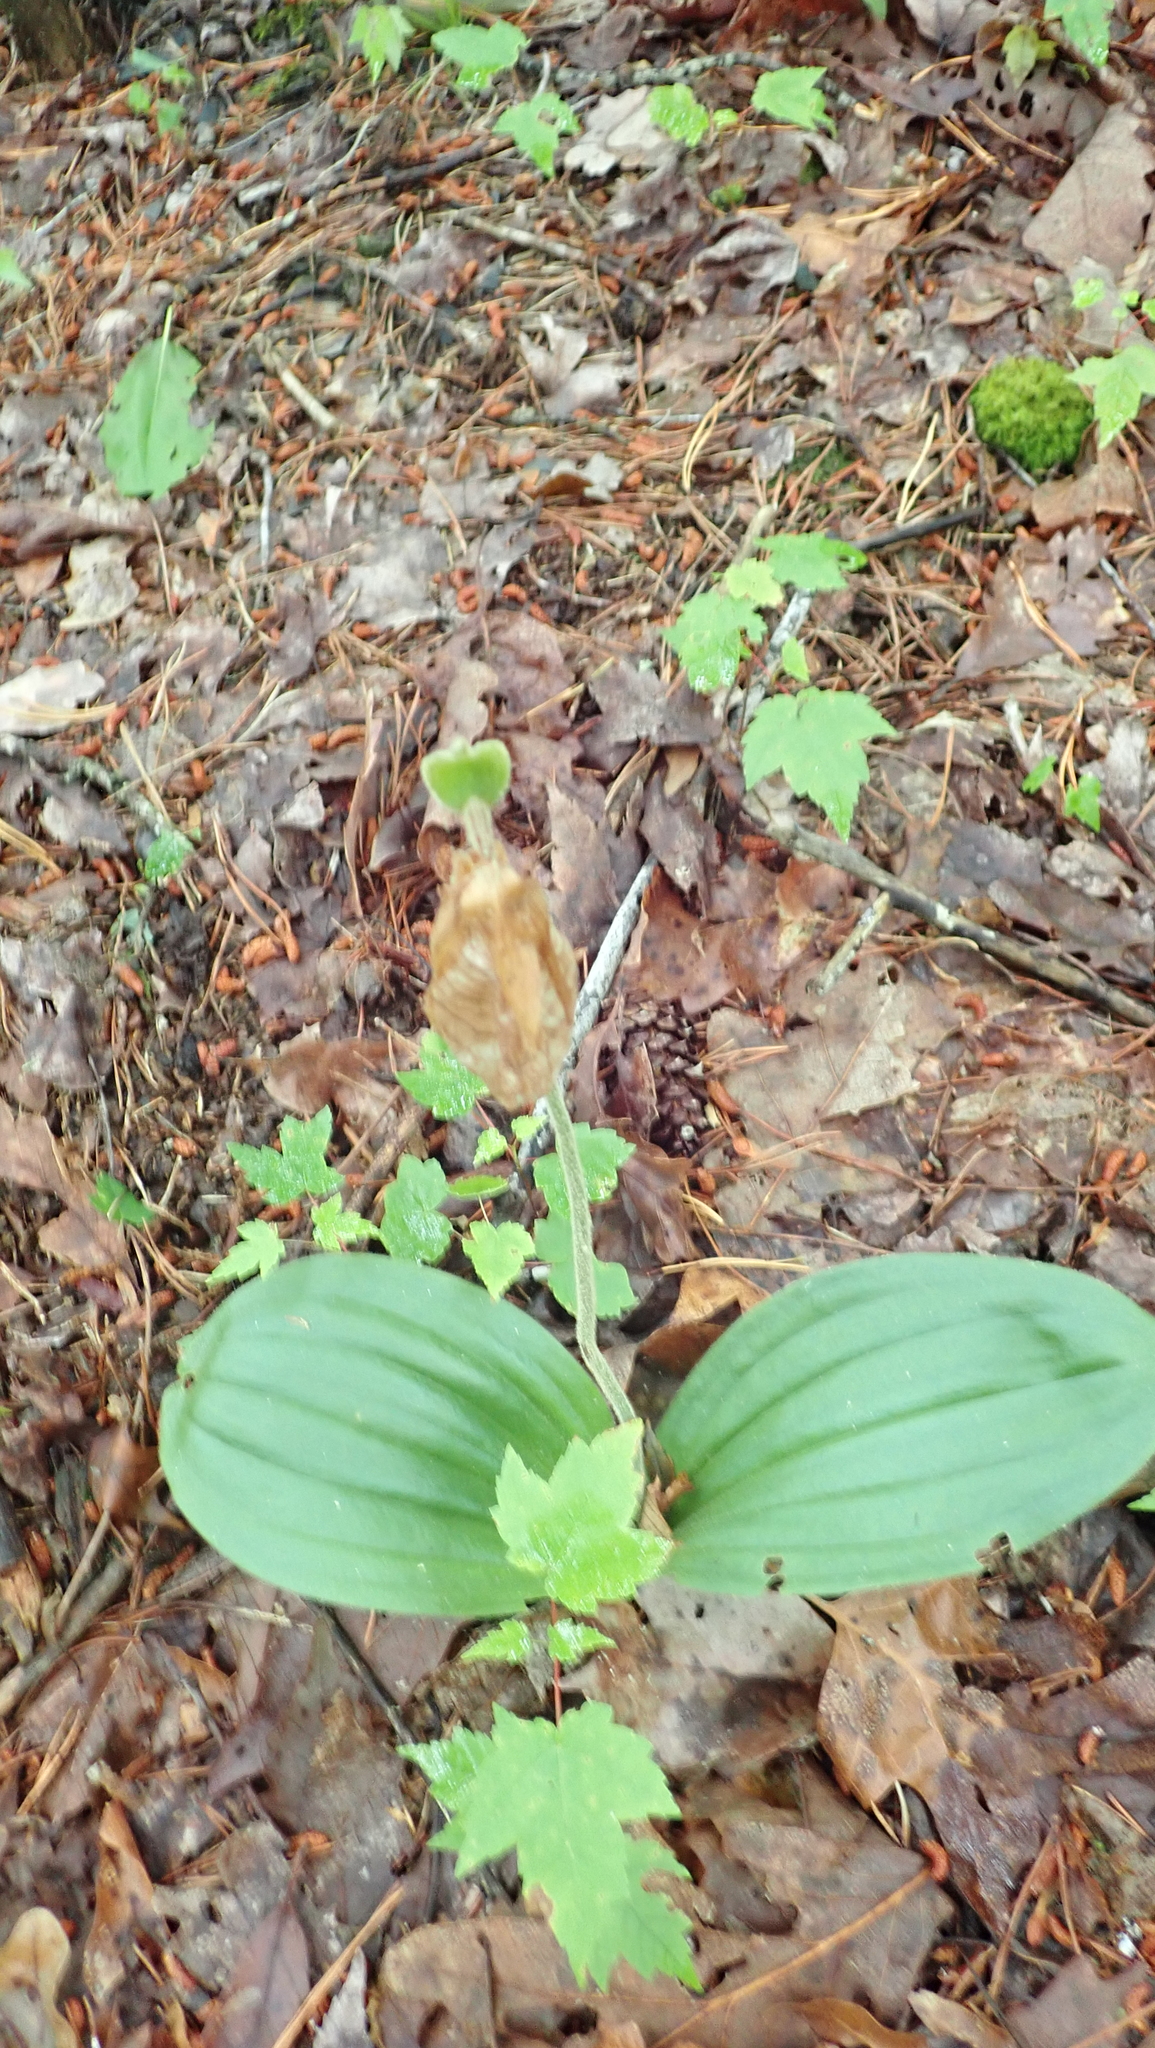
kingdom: Plantae
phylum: Tracheophyta
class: Liliopsida
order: Asparagales
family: Orchidaceae
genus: Cypripedium
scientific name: Cypripedium acaule
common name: Pink lady's-slipper
